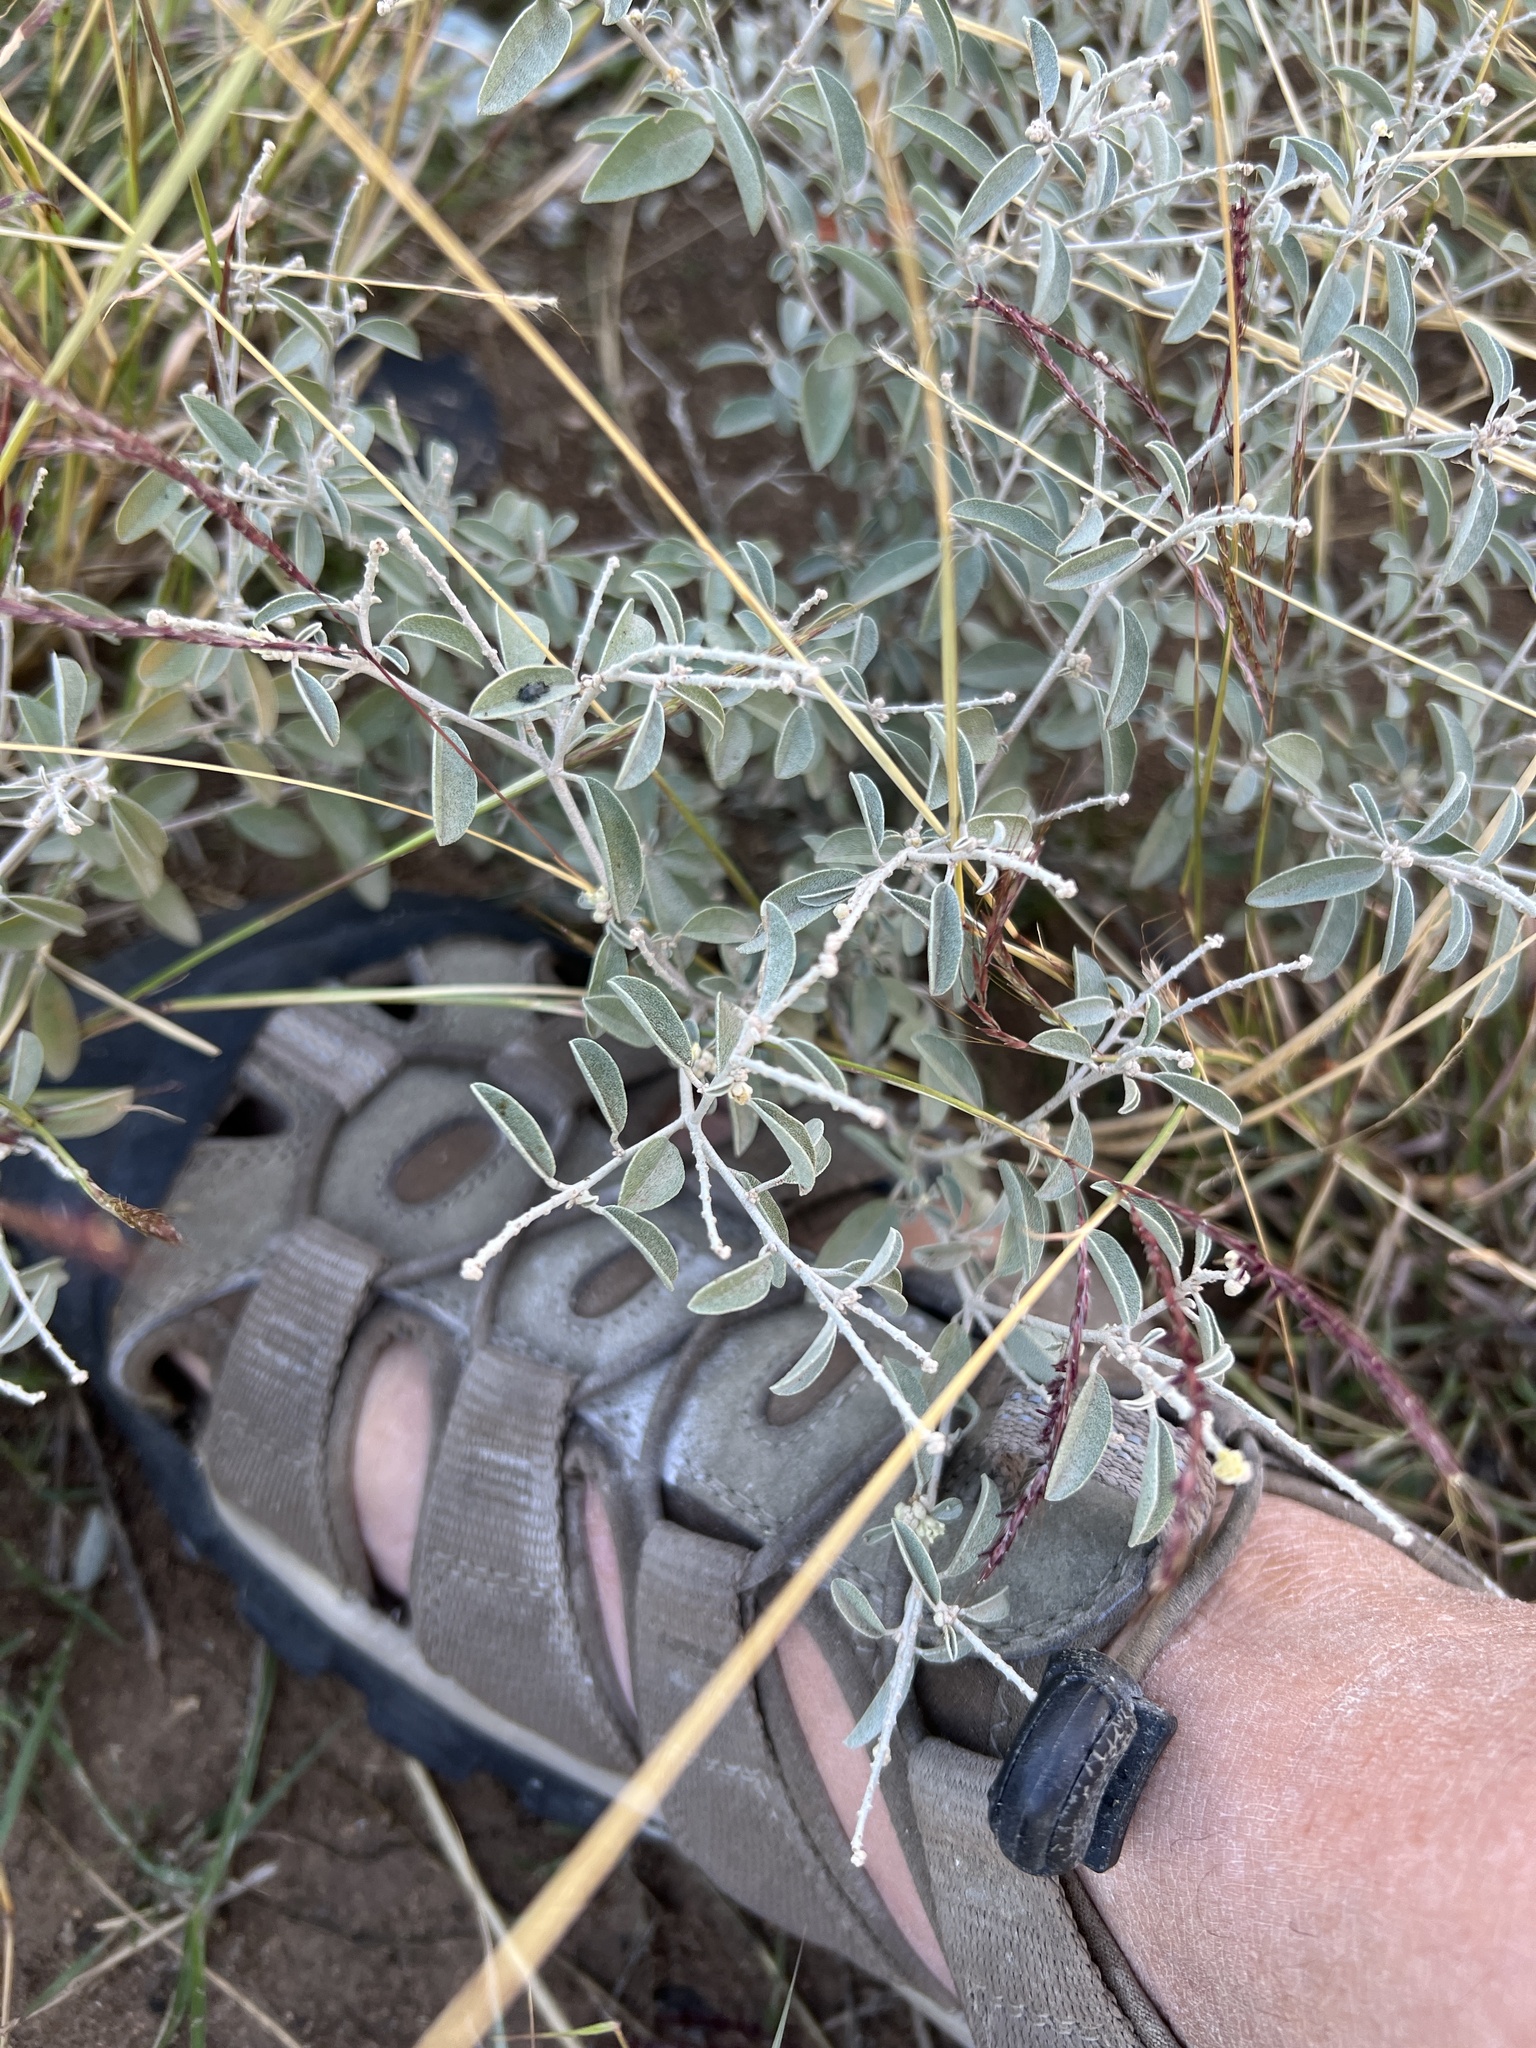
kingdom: Plantae
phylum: Tracheophyta
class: Magnoliopsida
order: Malpighiales
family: Euphorbiaceae
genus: Croton
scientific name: Croton dioicus
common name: Grassland croton
